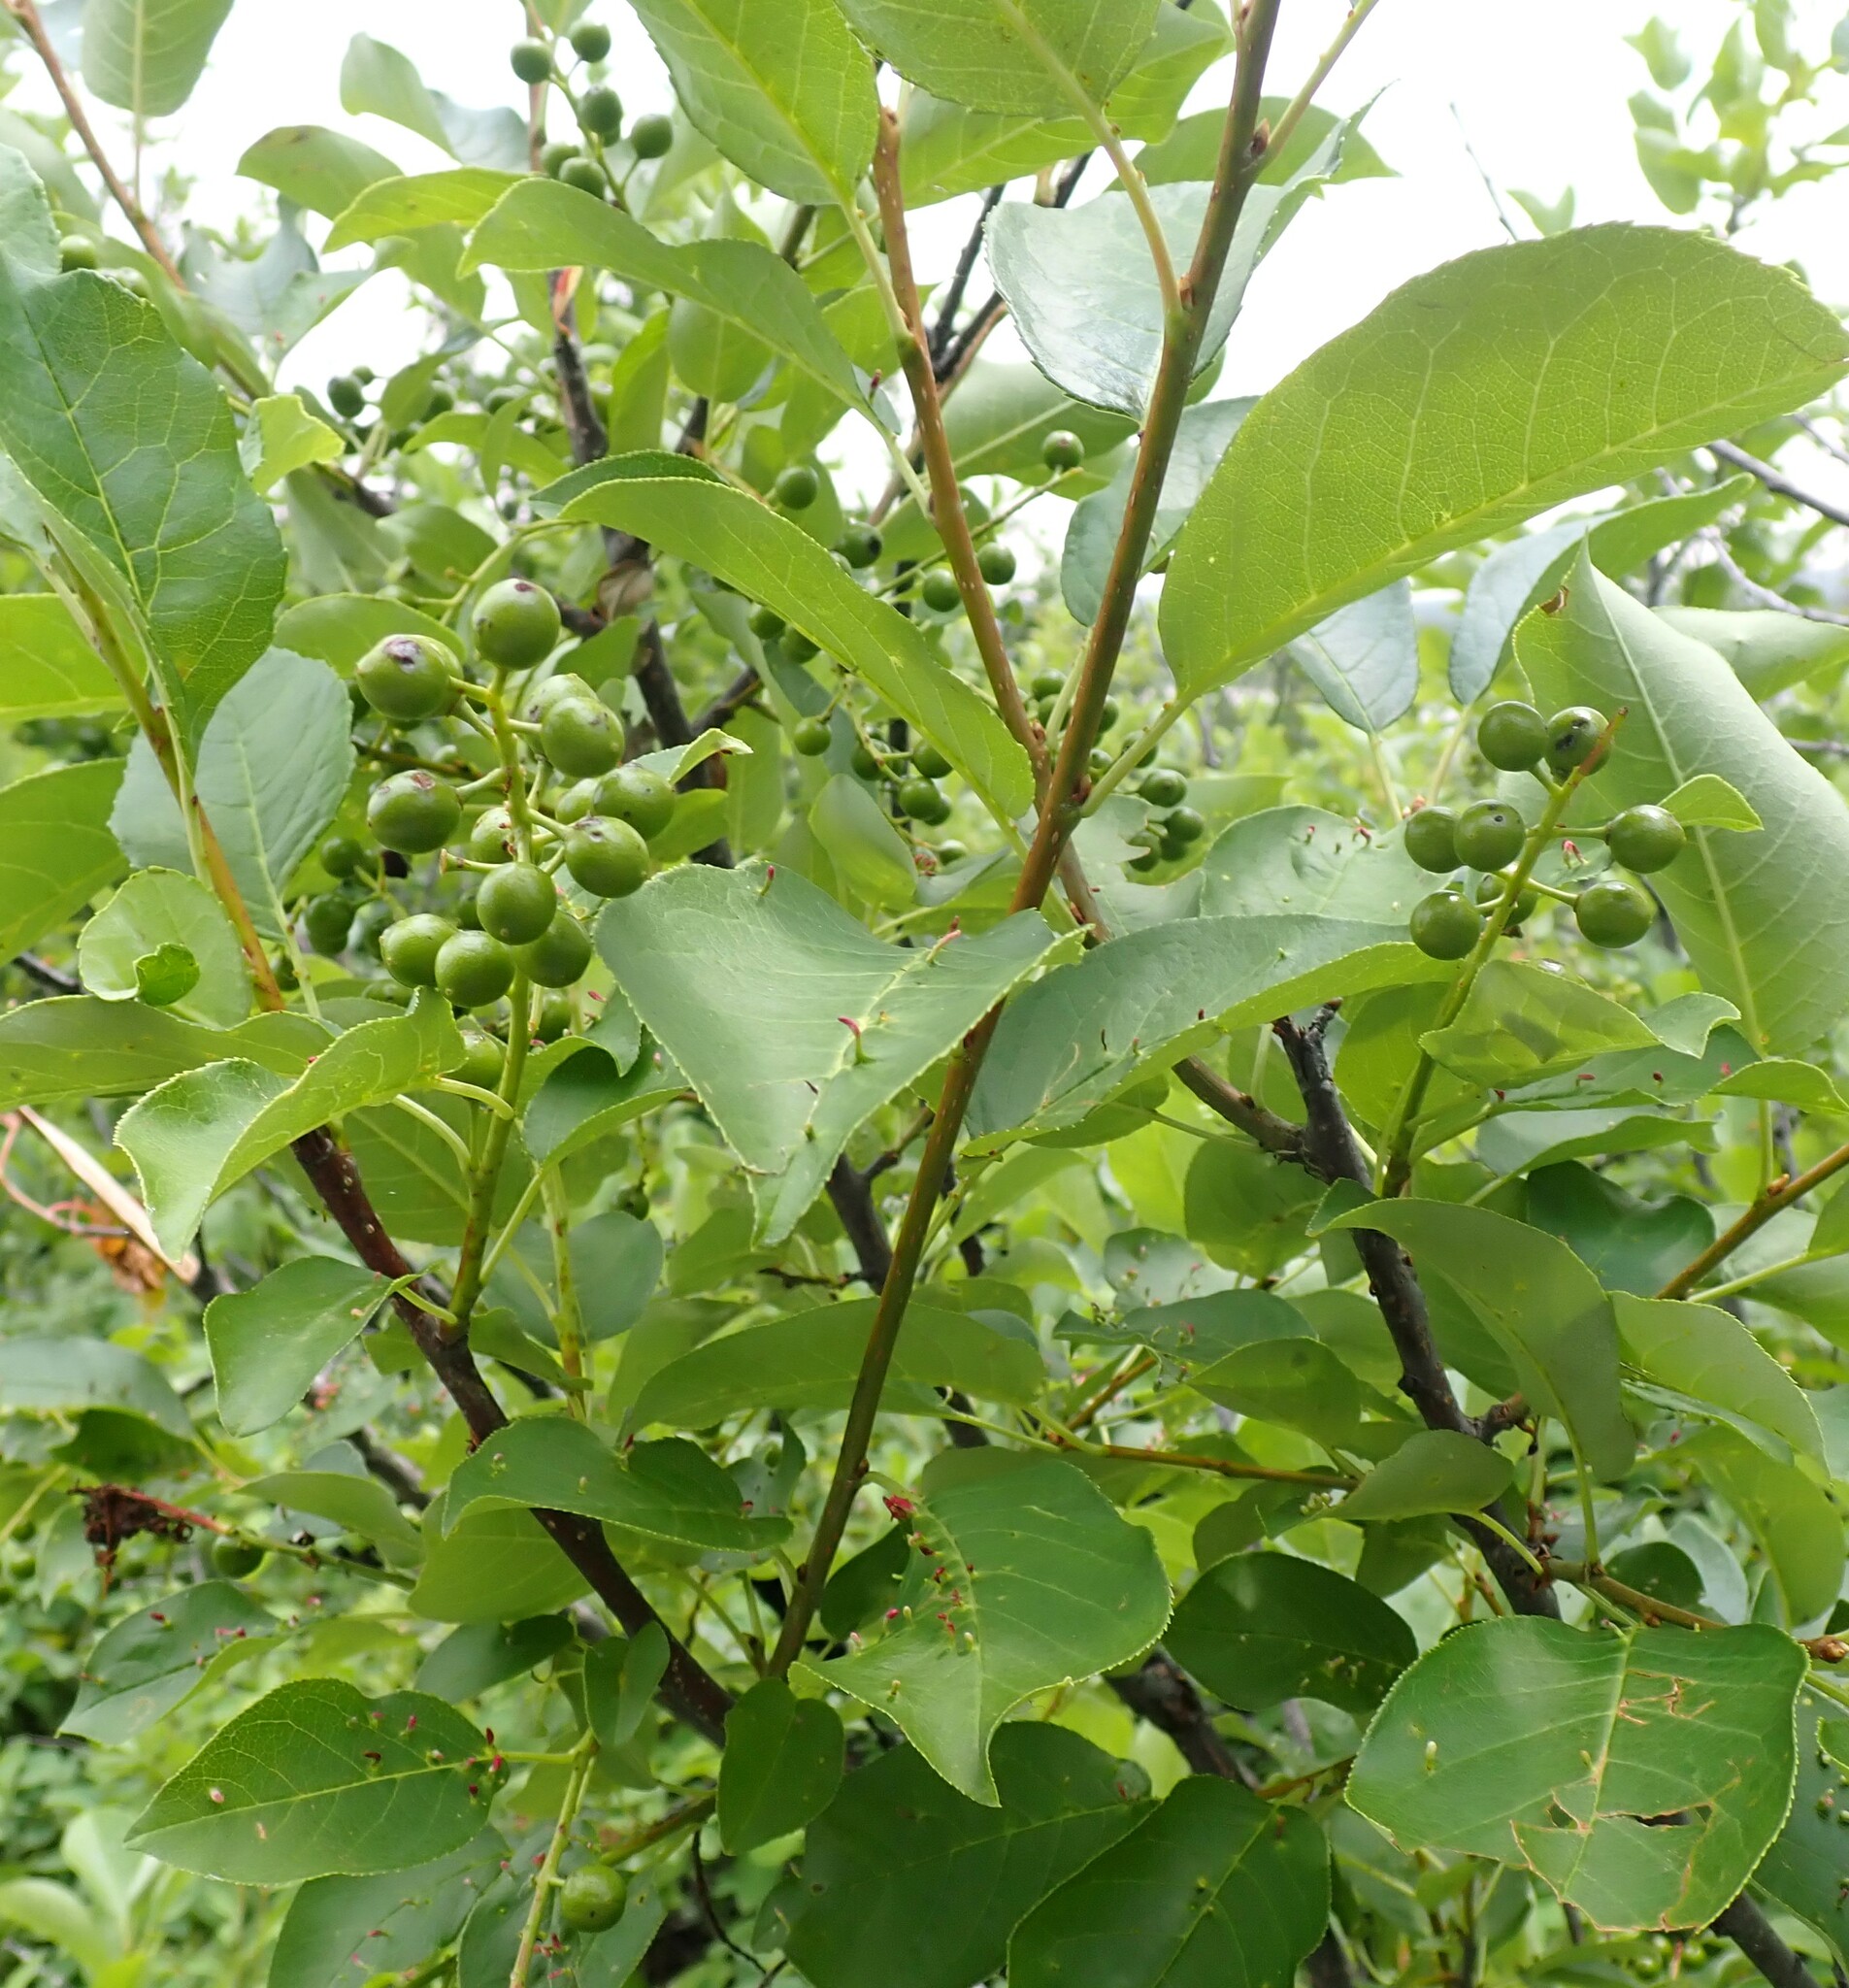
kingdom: Plantae
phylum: Tracheophyta
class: Magnoliopsida
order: Rosales
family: Rosaceae
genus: Prunus
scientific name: Prunus virginiana
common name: Chokecherry
